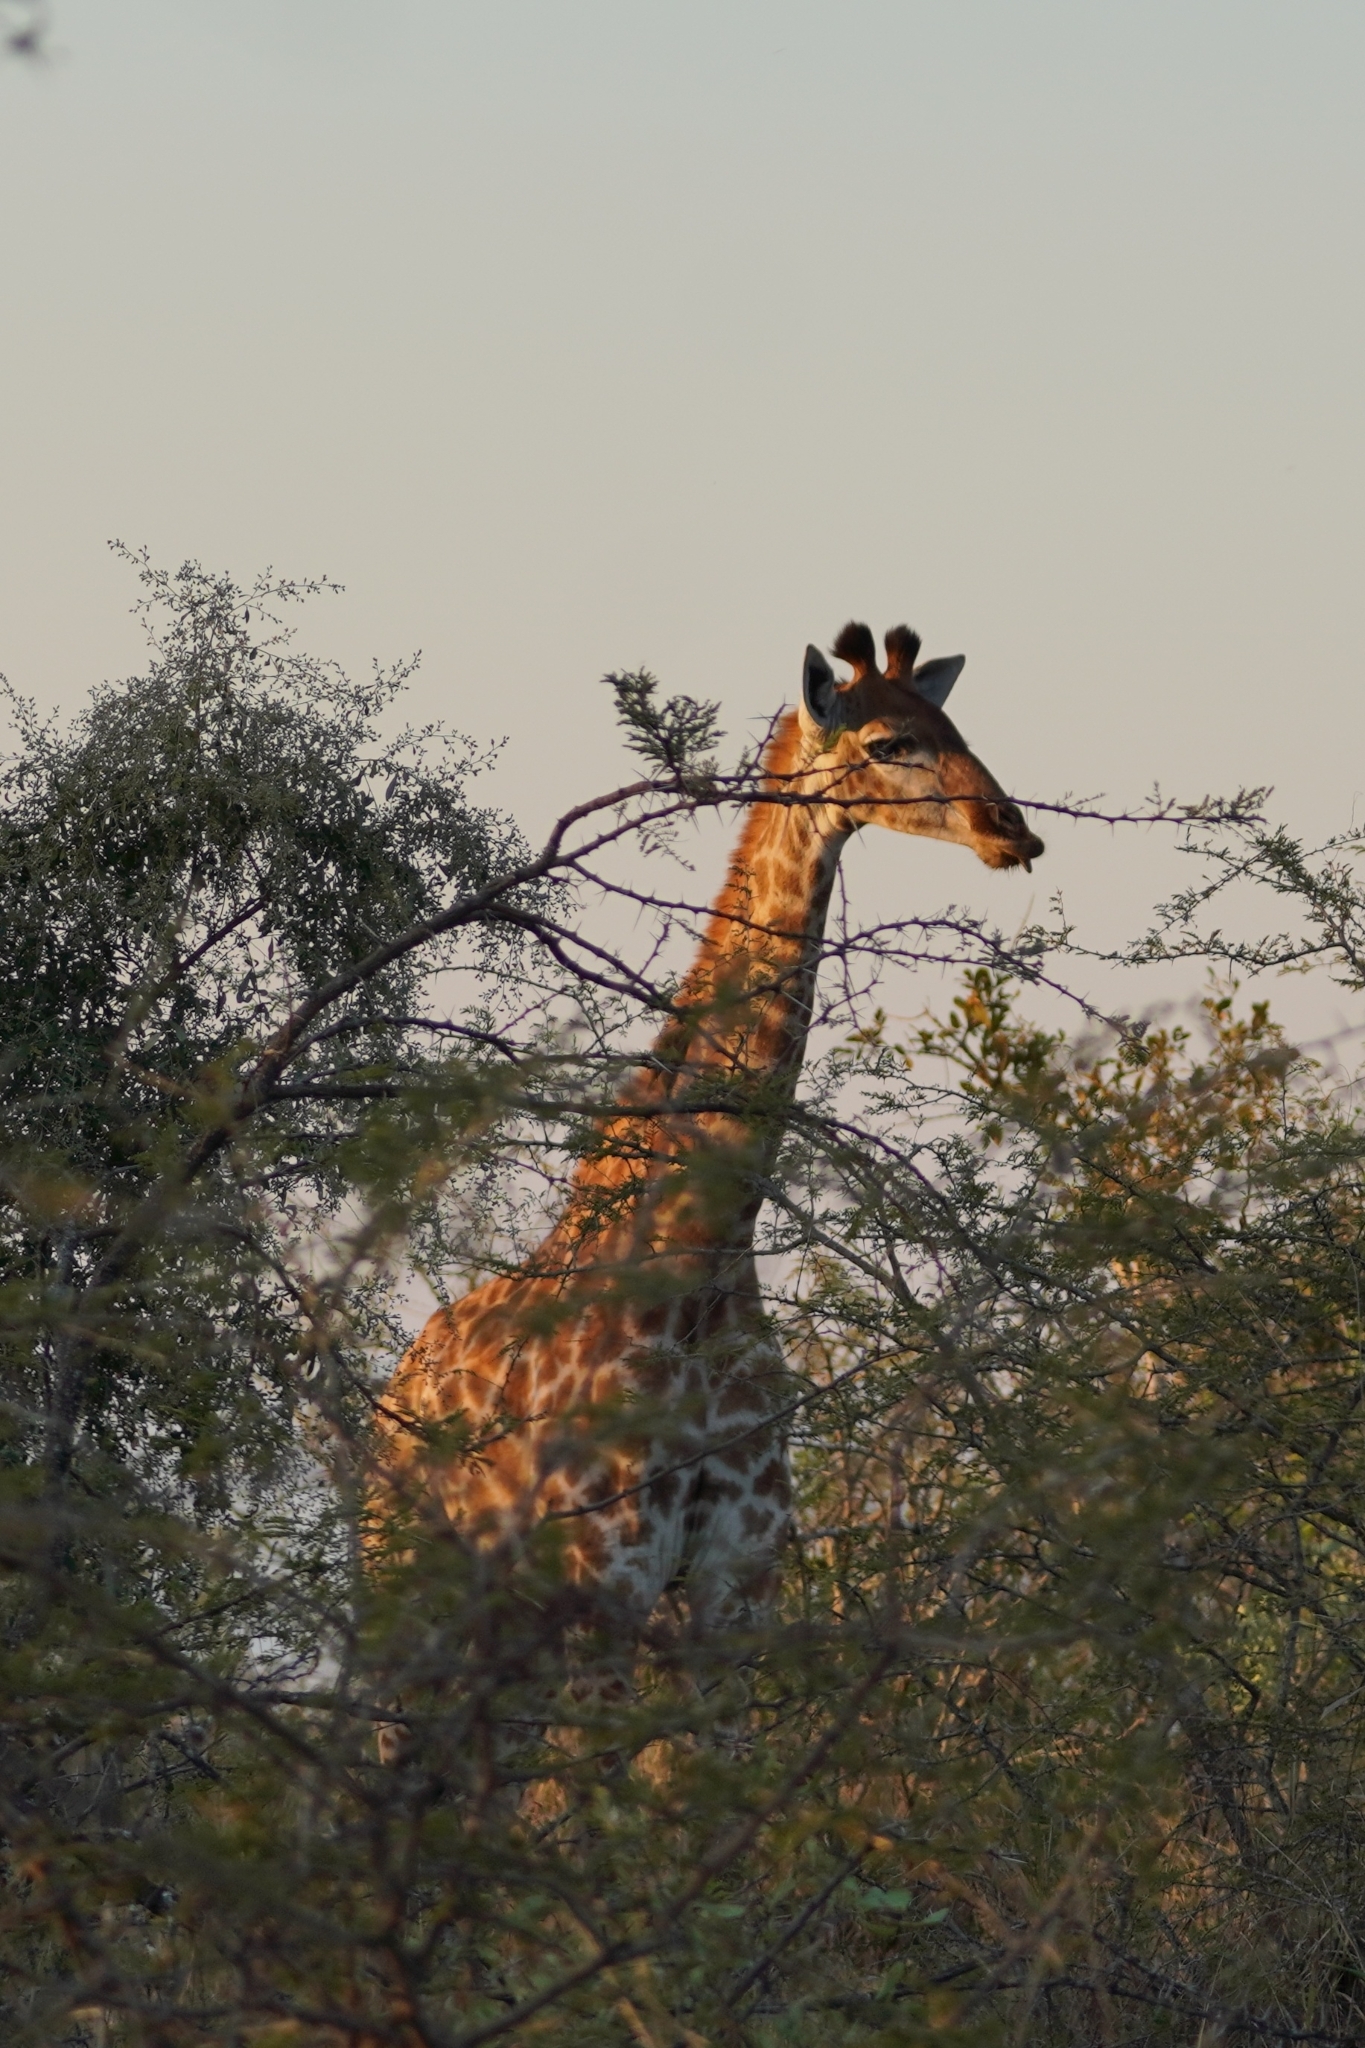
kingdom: Animalia
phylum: Chordata
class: Mammalia
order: Artiodactyla
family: Giraffidae
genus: Giraffa
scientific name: Giraffa giraffa
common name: Southern giraffe
